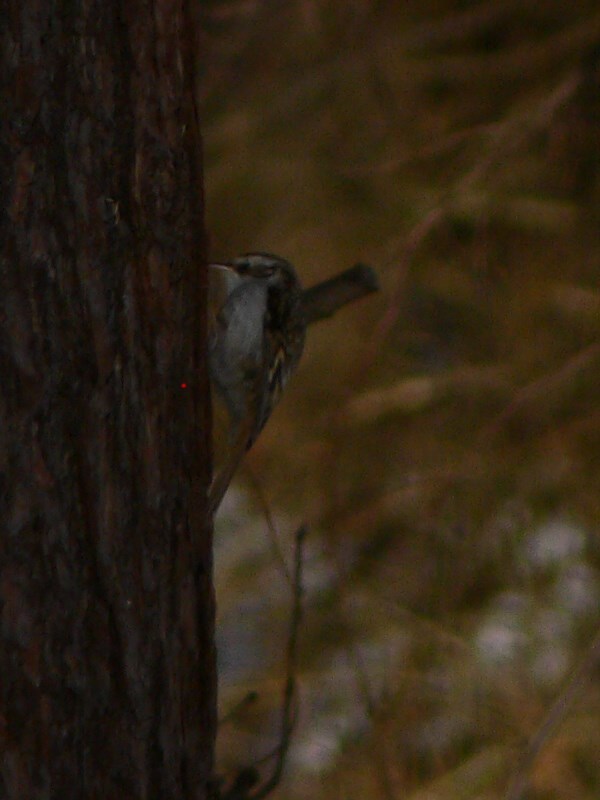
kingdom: Animalia
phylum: Chordata
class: Aves
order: Passeriformes
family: Certhiidae
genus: Certhia
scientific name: Certhia familiaris
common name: Eurasian treecreeper
